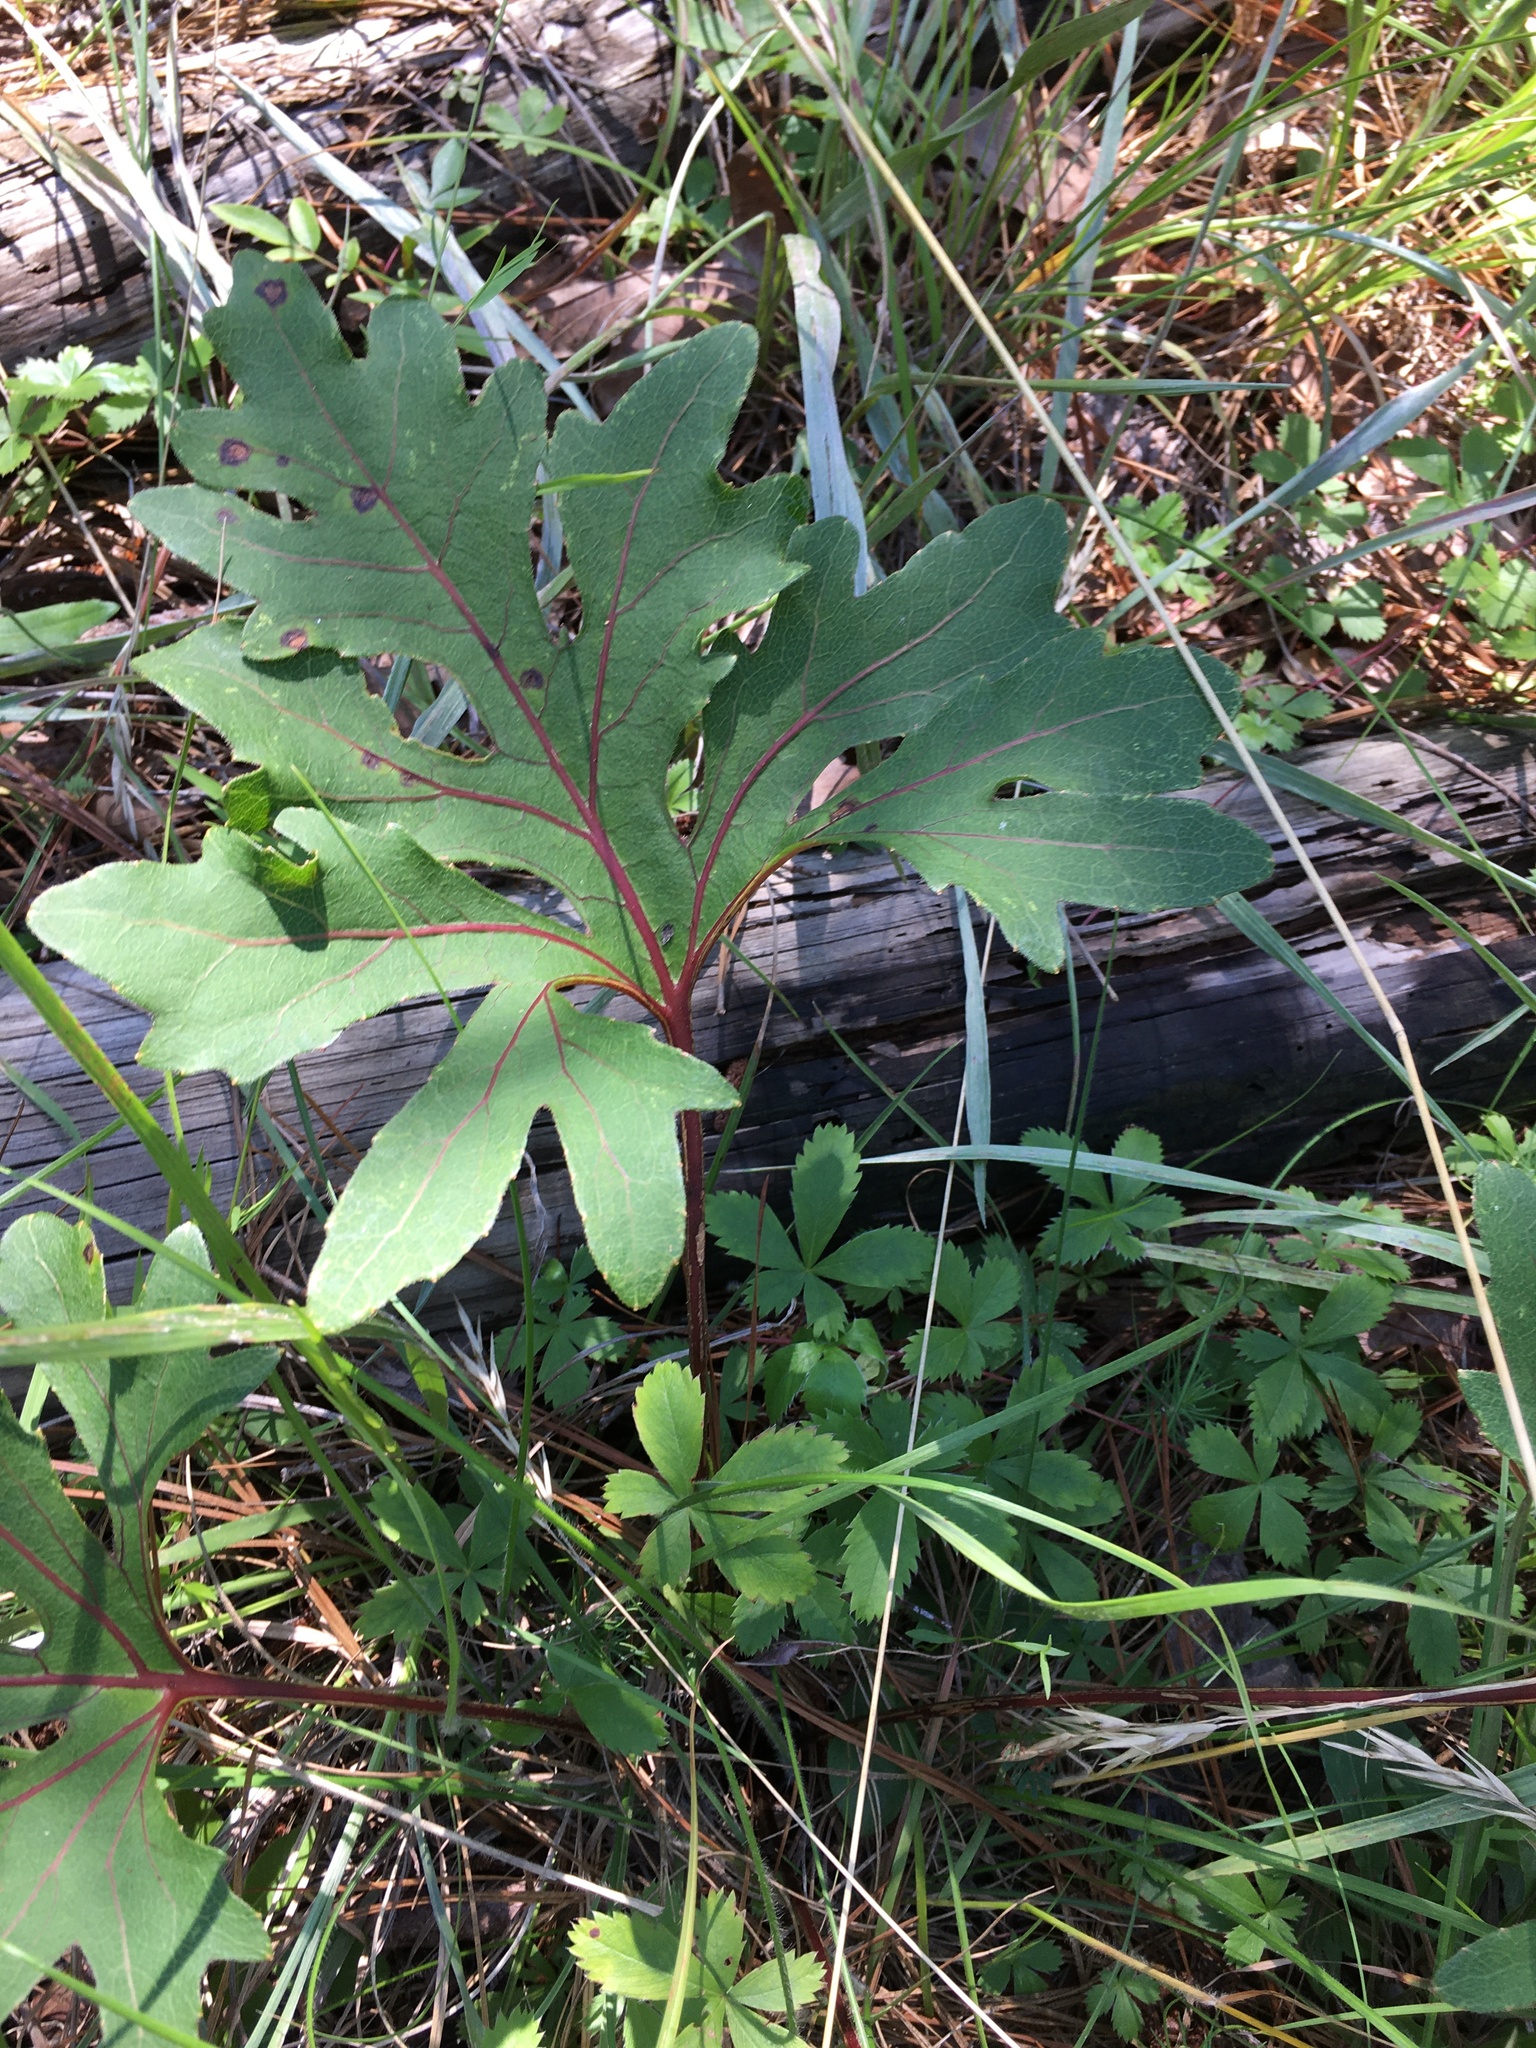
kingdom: Plantae
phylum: Tracheophyta
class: Magnoliopsida
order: Asterales
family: Asteraceae
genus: Silphium
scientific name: Silphium compositum
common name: Lesser basal-leaf rosinweed
